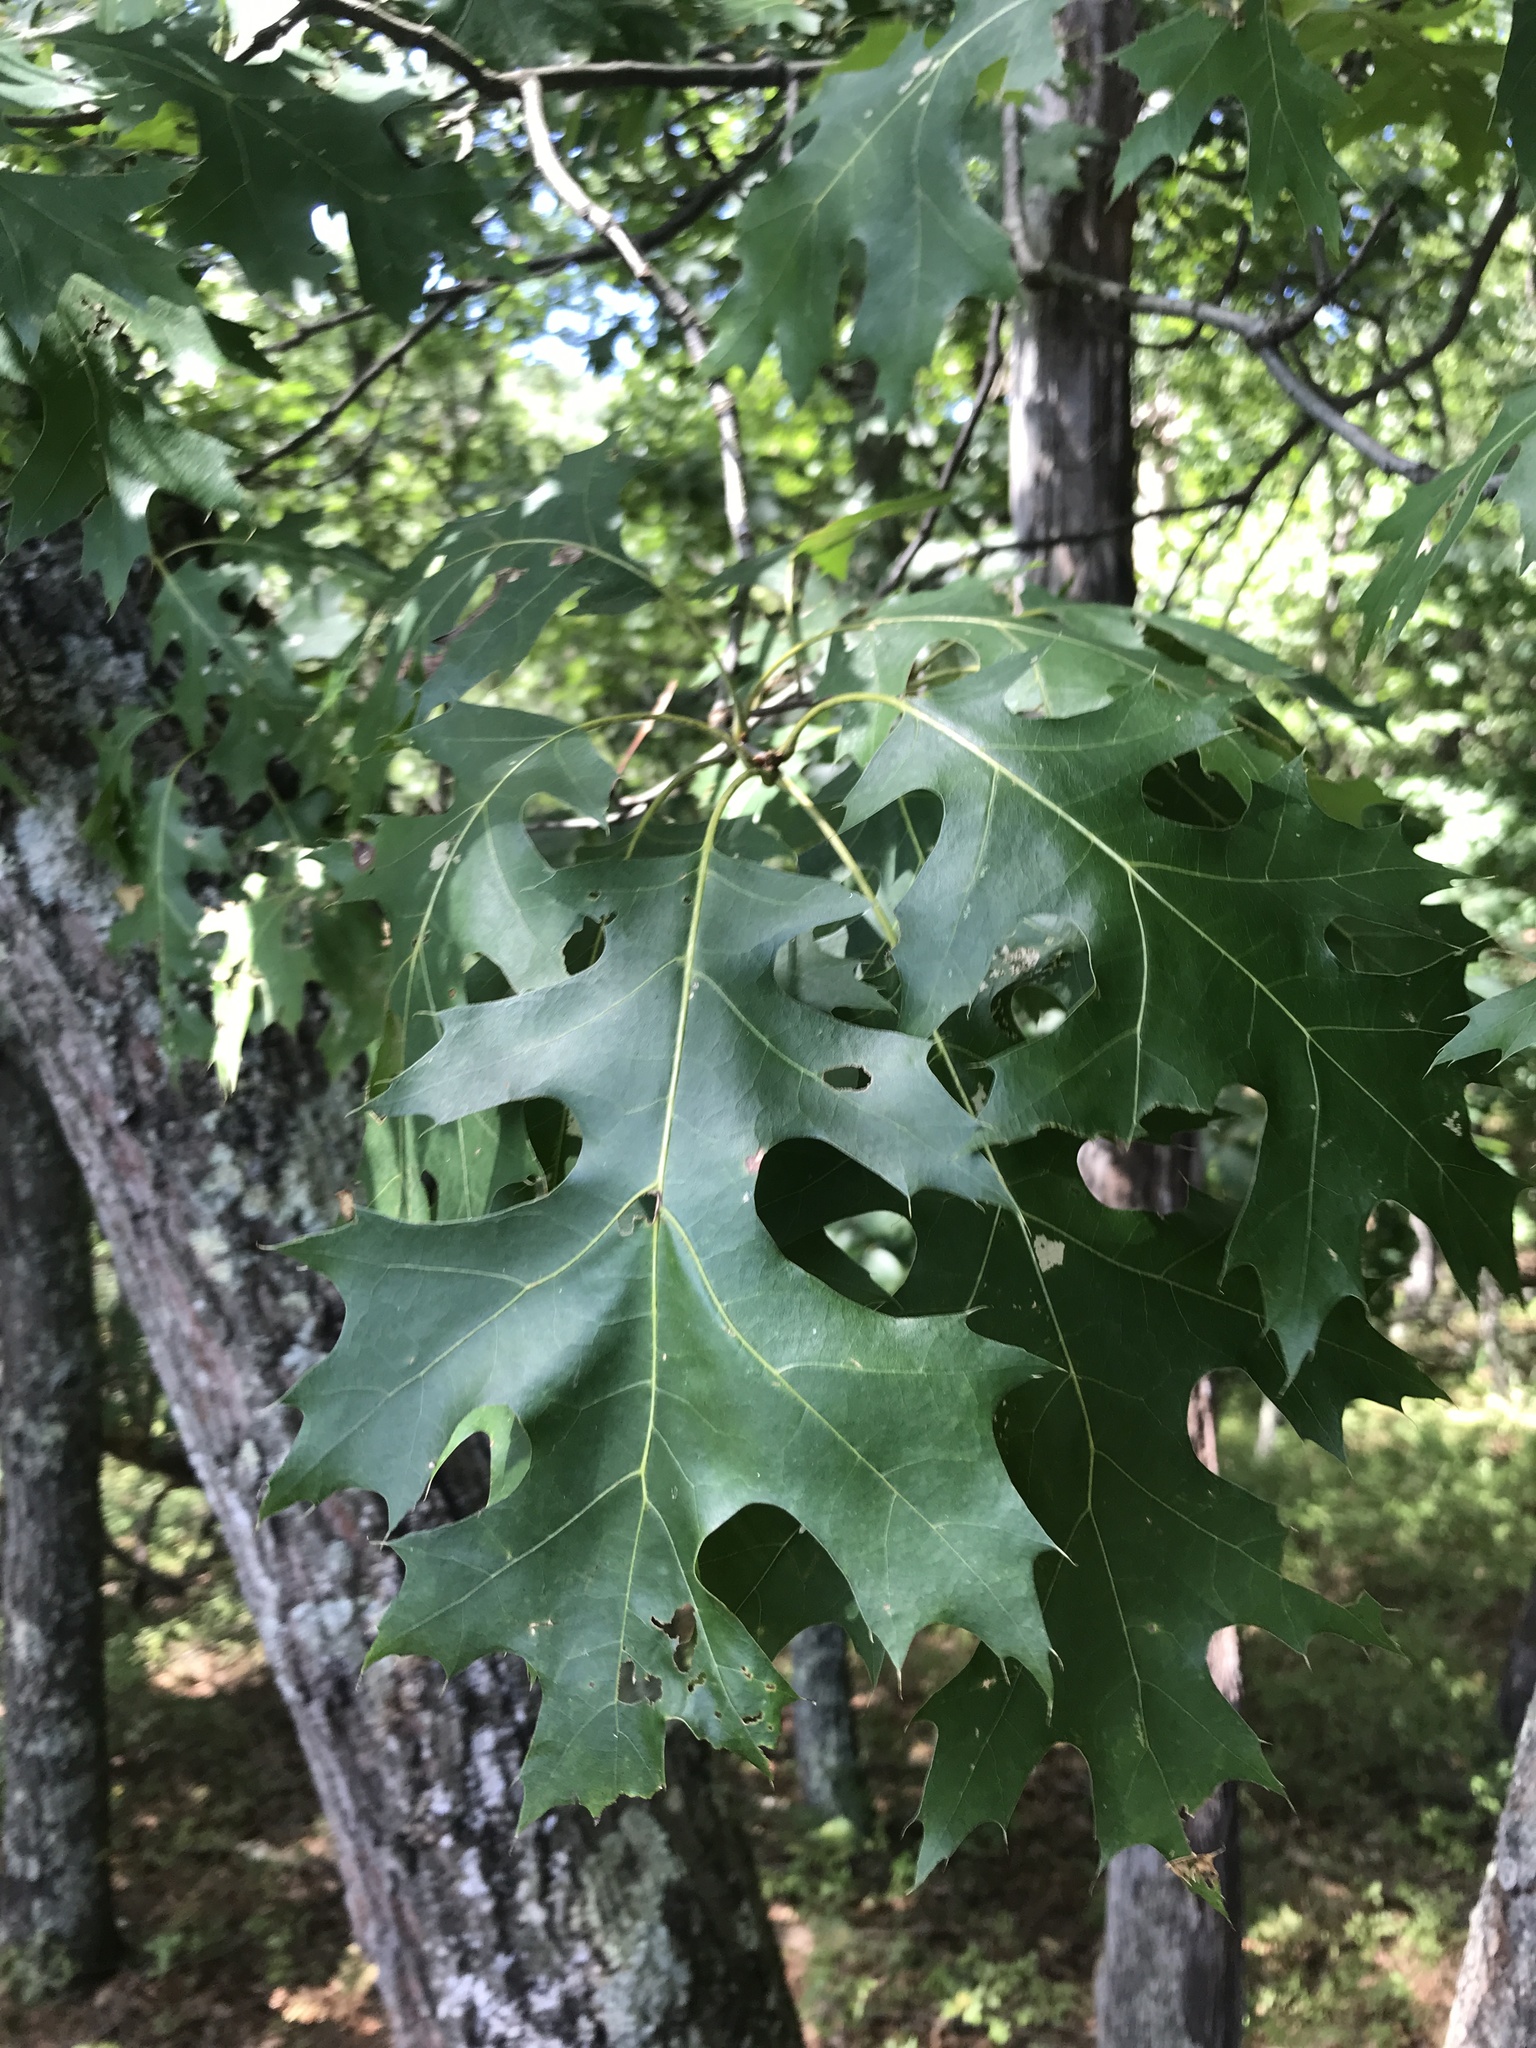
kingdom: Plantae
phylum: Tracheophyta
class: Magnoliopsida
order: Fagales
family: Fagaceae
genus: Quercus
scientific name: Quercus rubra
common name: Red oak
